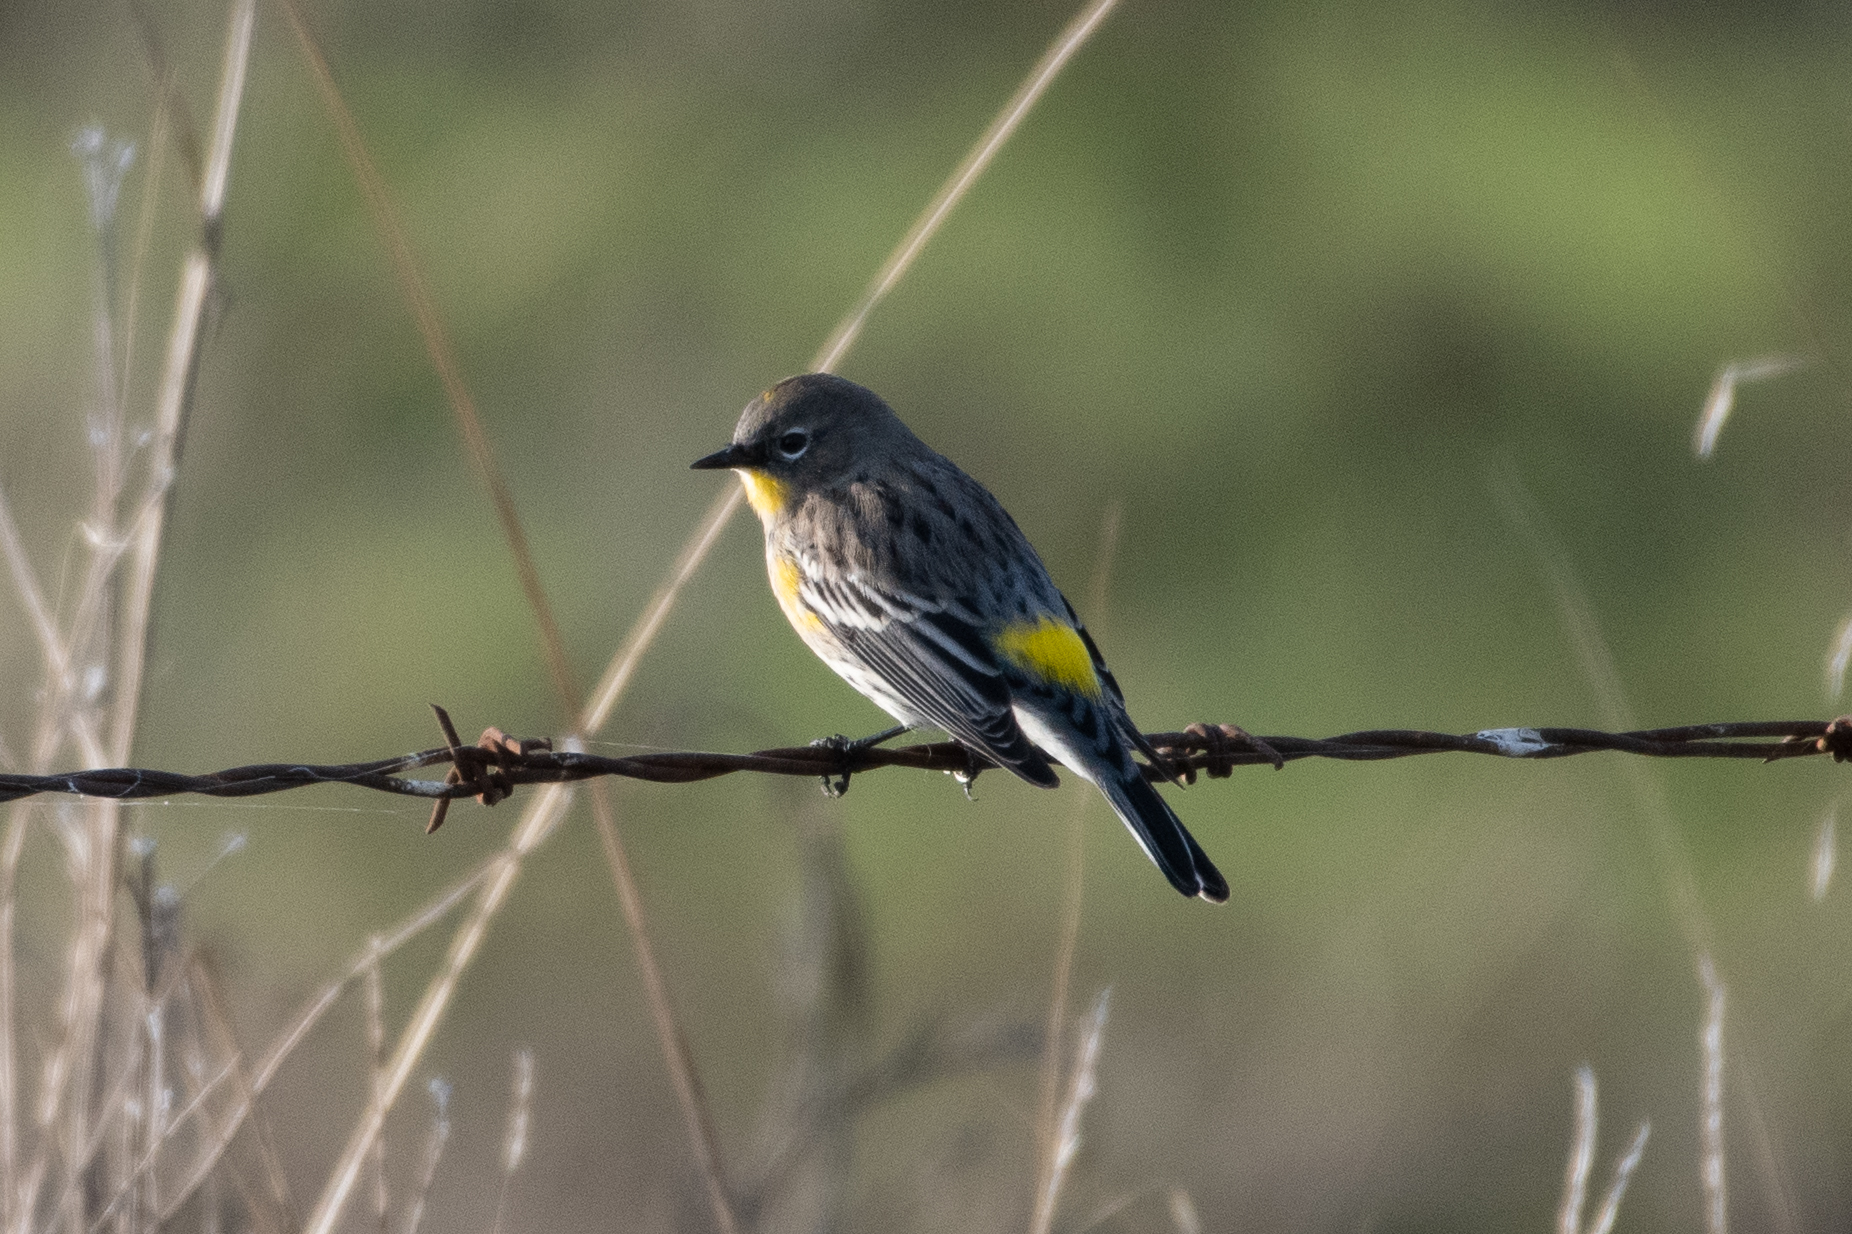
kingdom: Animalia
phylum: Chordata
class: Aves
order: Passeriformes
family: Parulidae
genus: Setophaga
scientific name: Setophaga coronata
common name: Myrtle warbler
